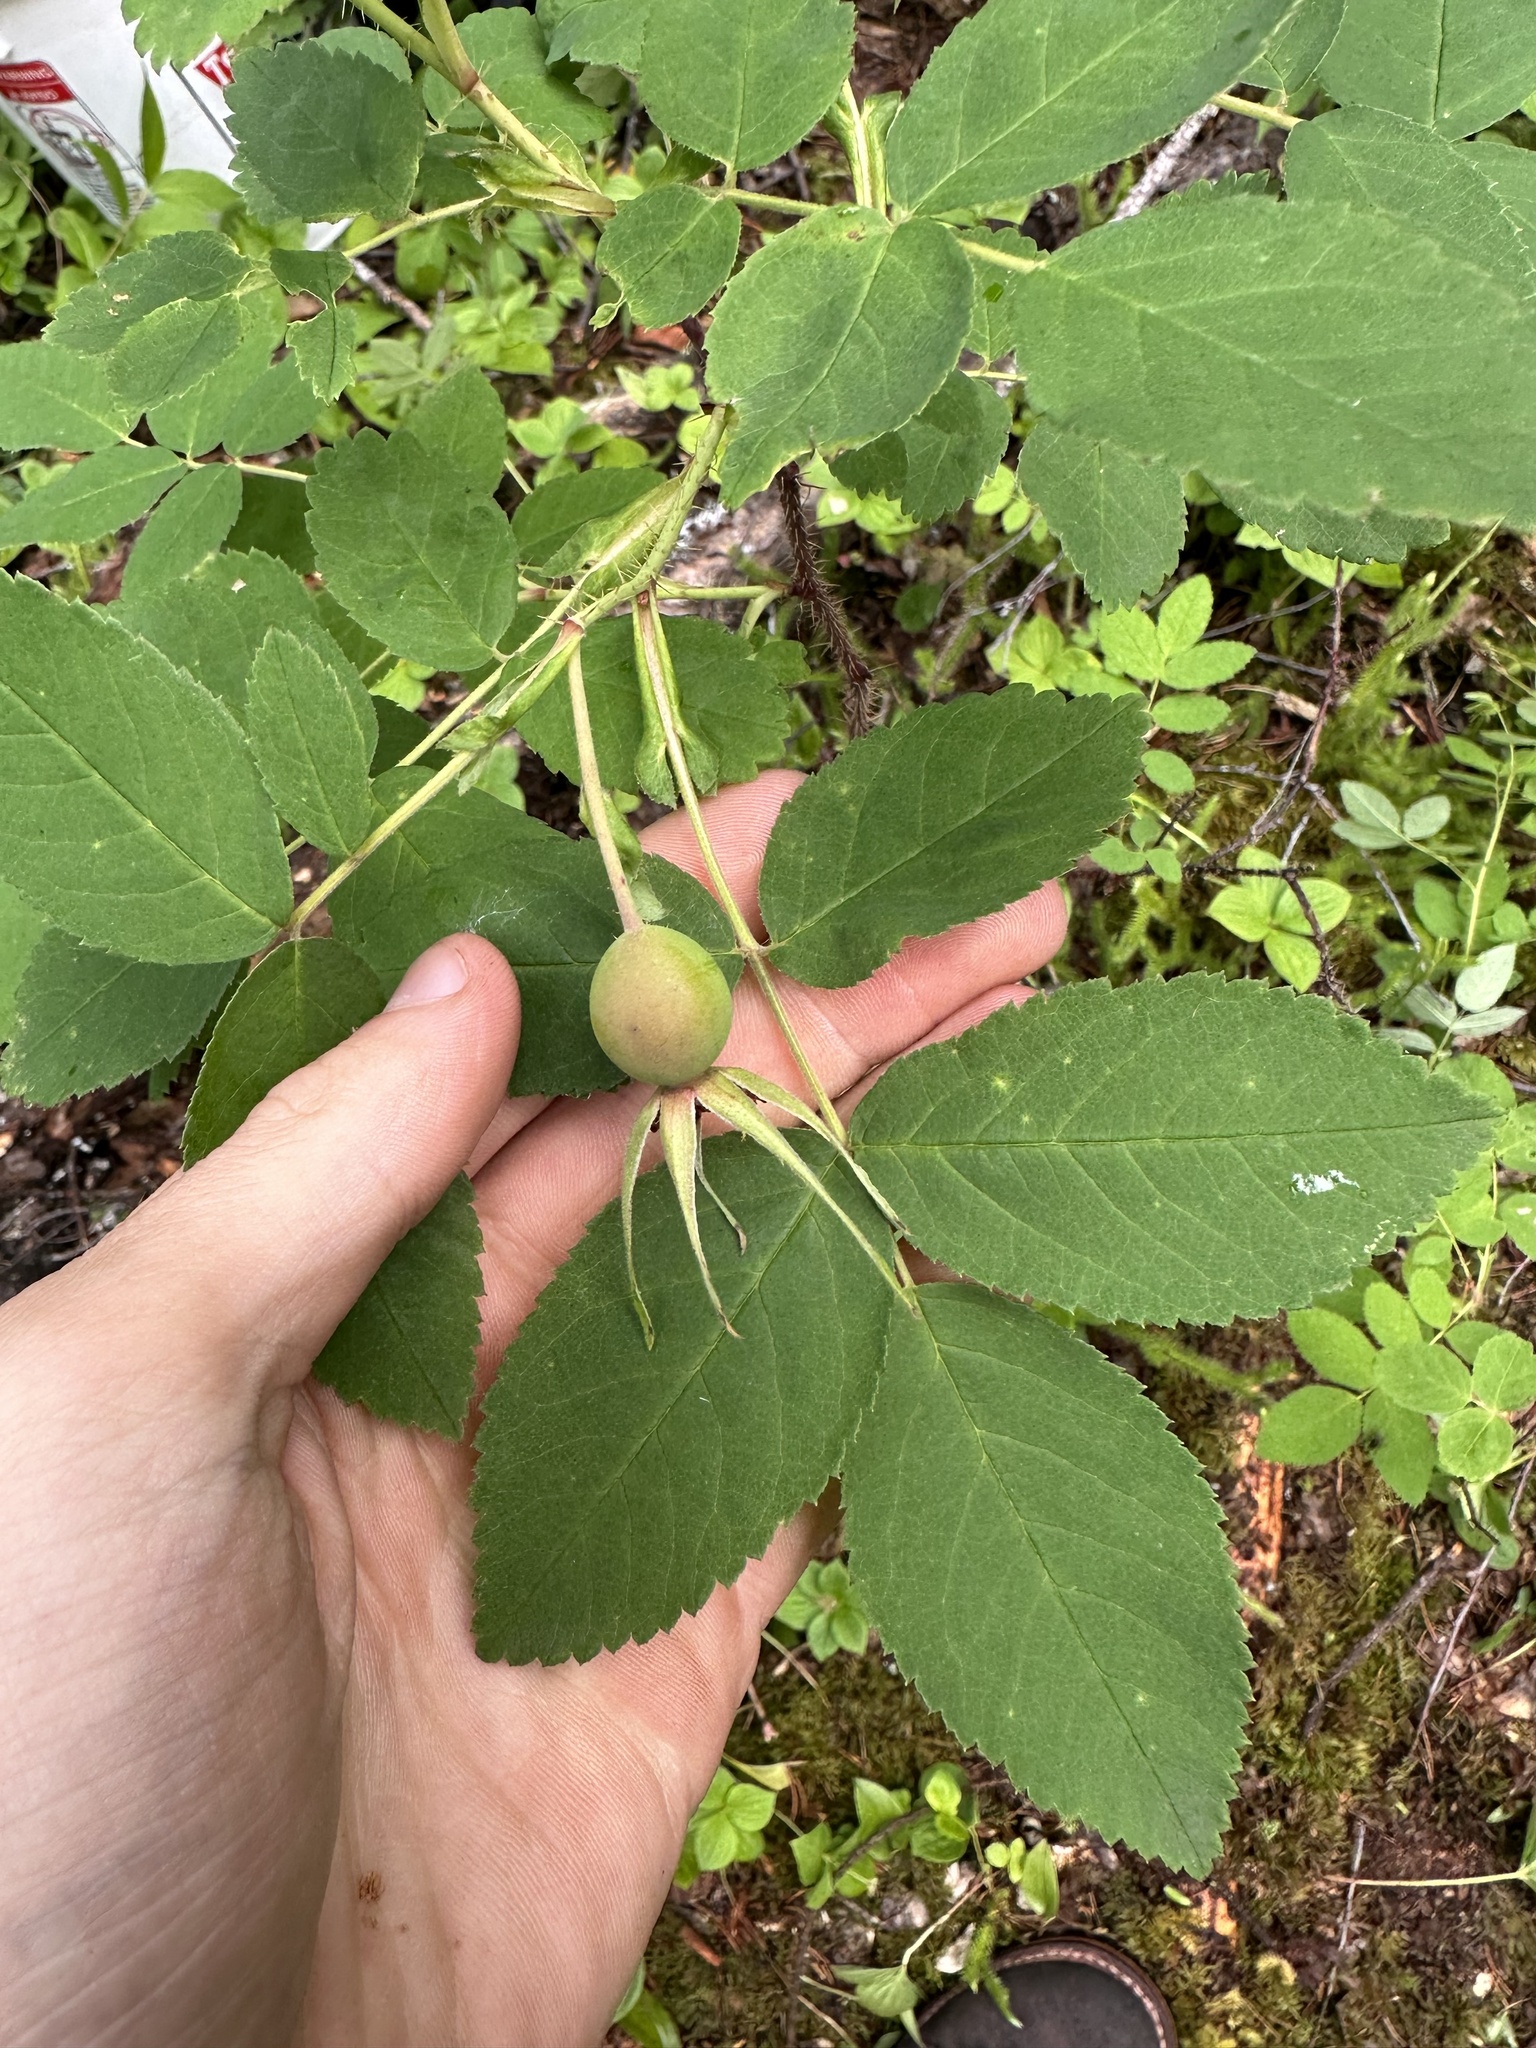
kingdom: Plantae
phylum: Tracheophyta
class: Magnoliopsida
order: Rosales
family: Rosaceae
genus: Rosa
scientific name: Rosa acicularis
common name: Prickly rose
